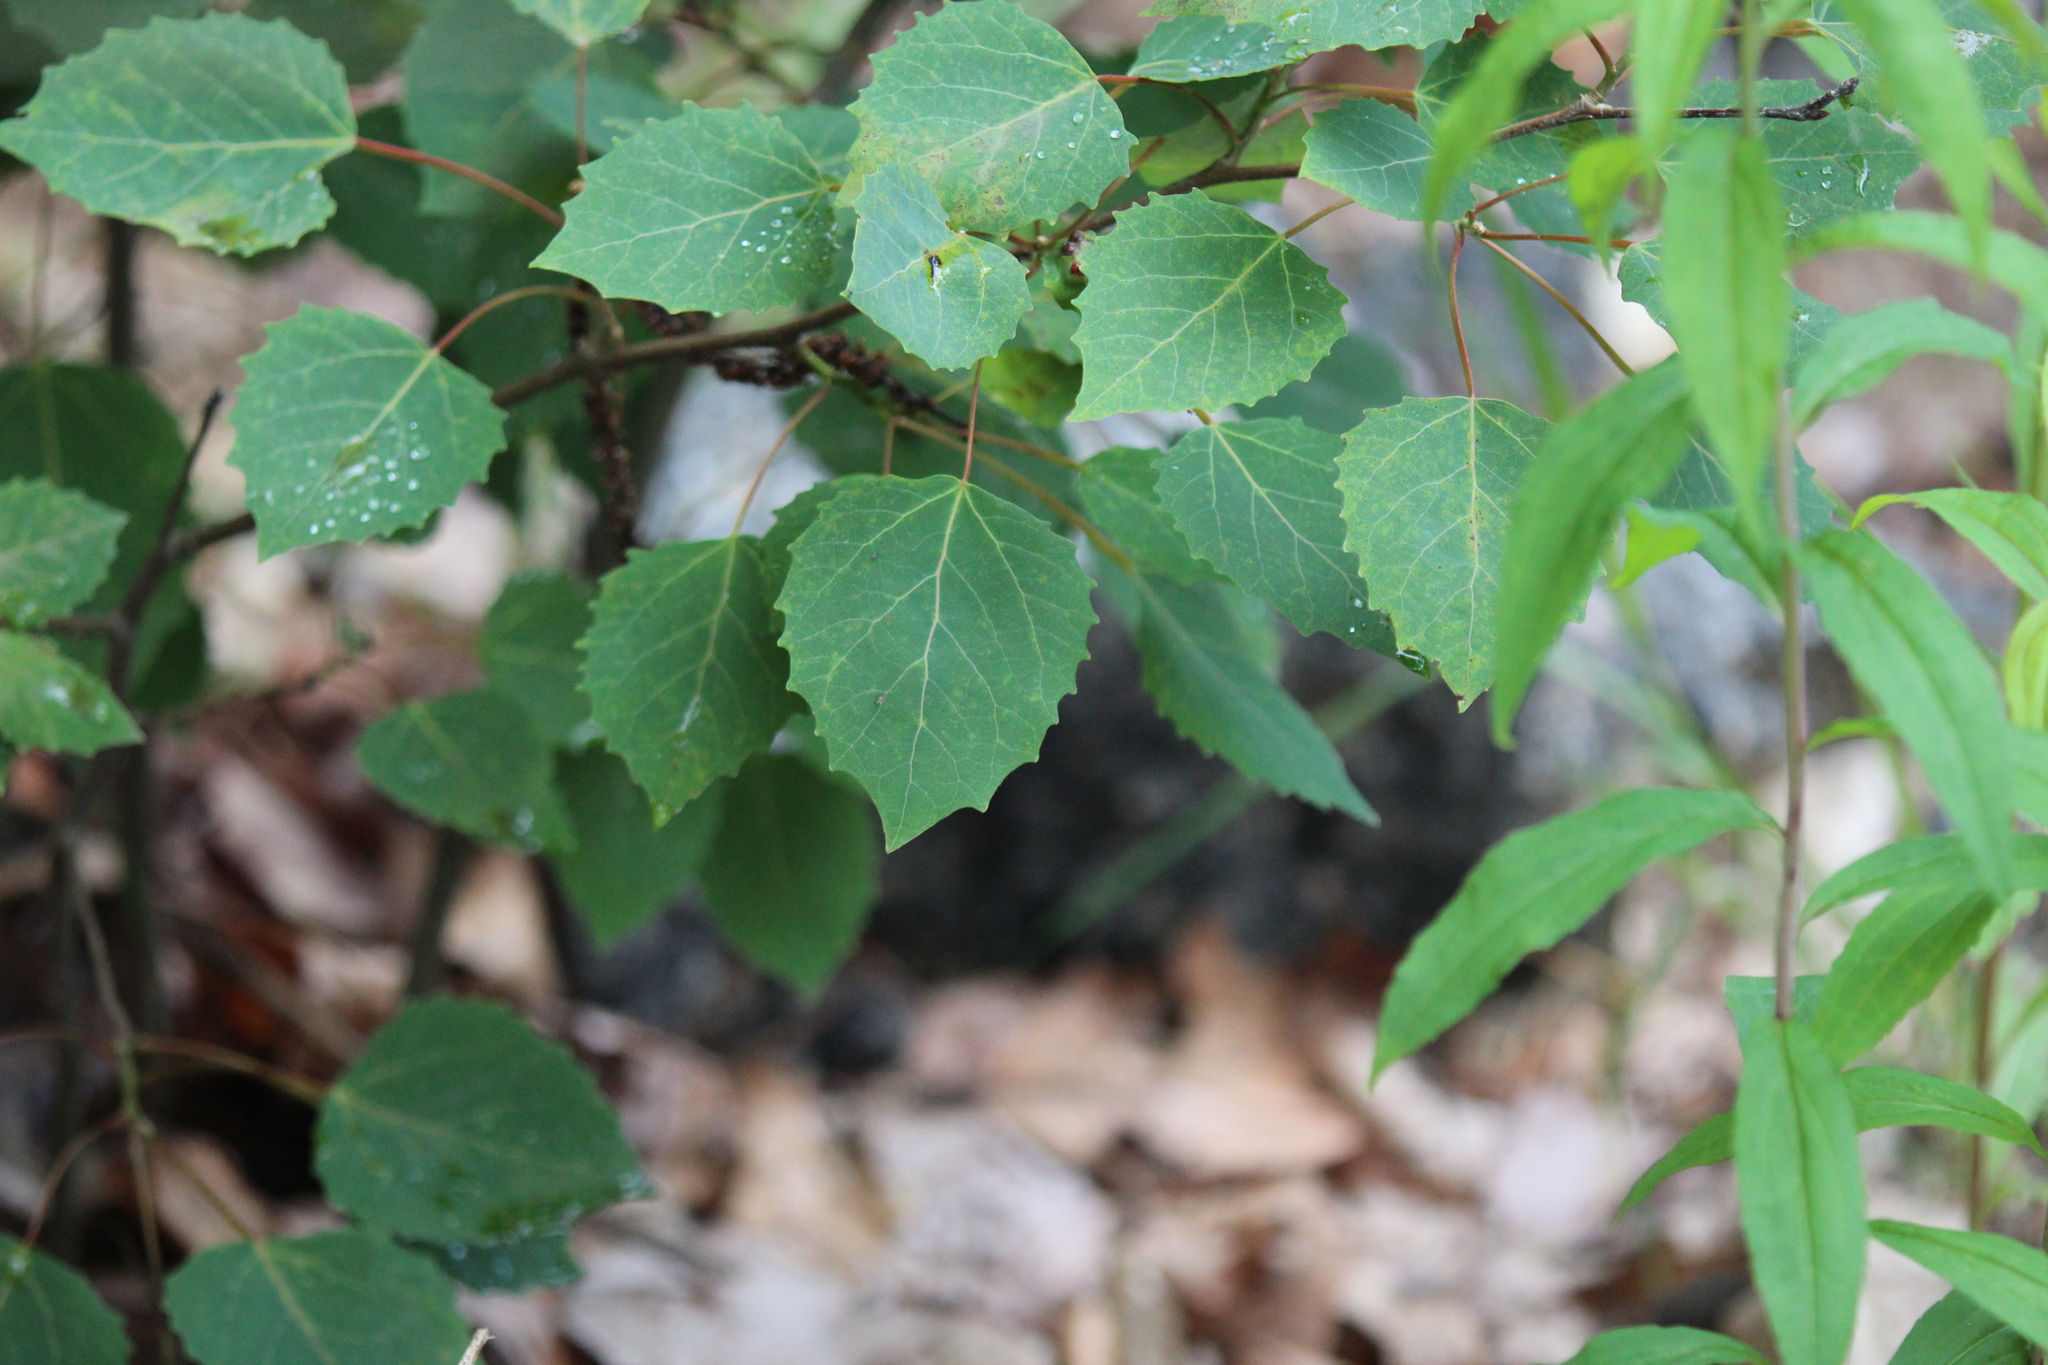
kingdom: Plantae
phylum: Tracheophyta
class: Magnoliopsida
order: Malpighiales
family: Salicaceae
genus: Populus
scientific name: Populus grandidentata
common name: Bigtooth aspen
